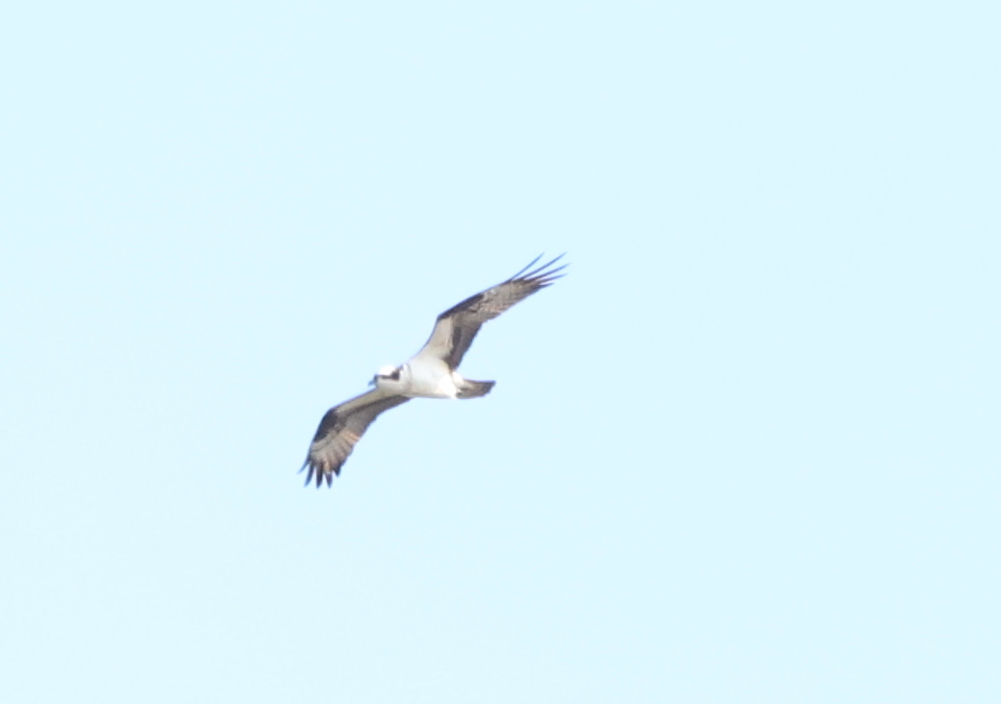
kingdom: Animalia
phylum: Chordata
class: Aves
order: Accipitriformes
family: Pandionidae
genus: Pandion
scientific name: Pandion haliaetus
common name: Osprey
